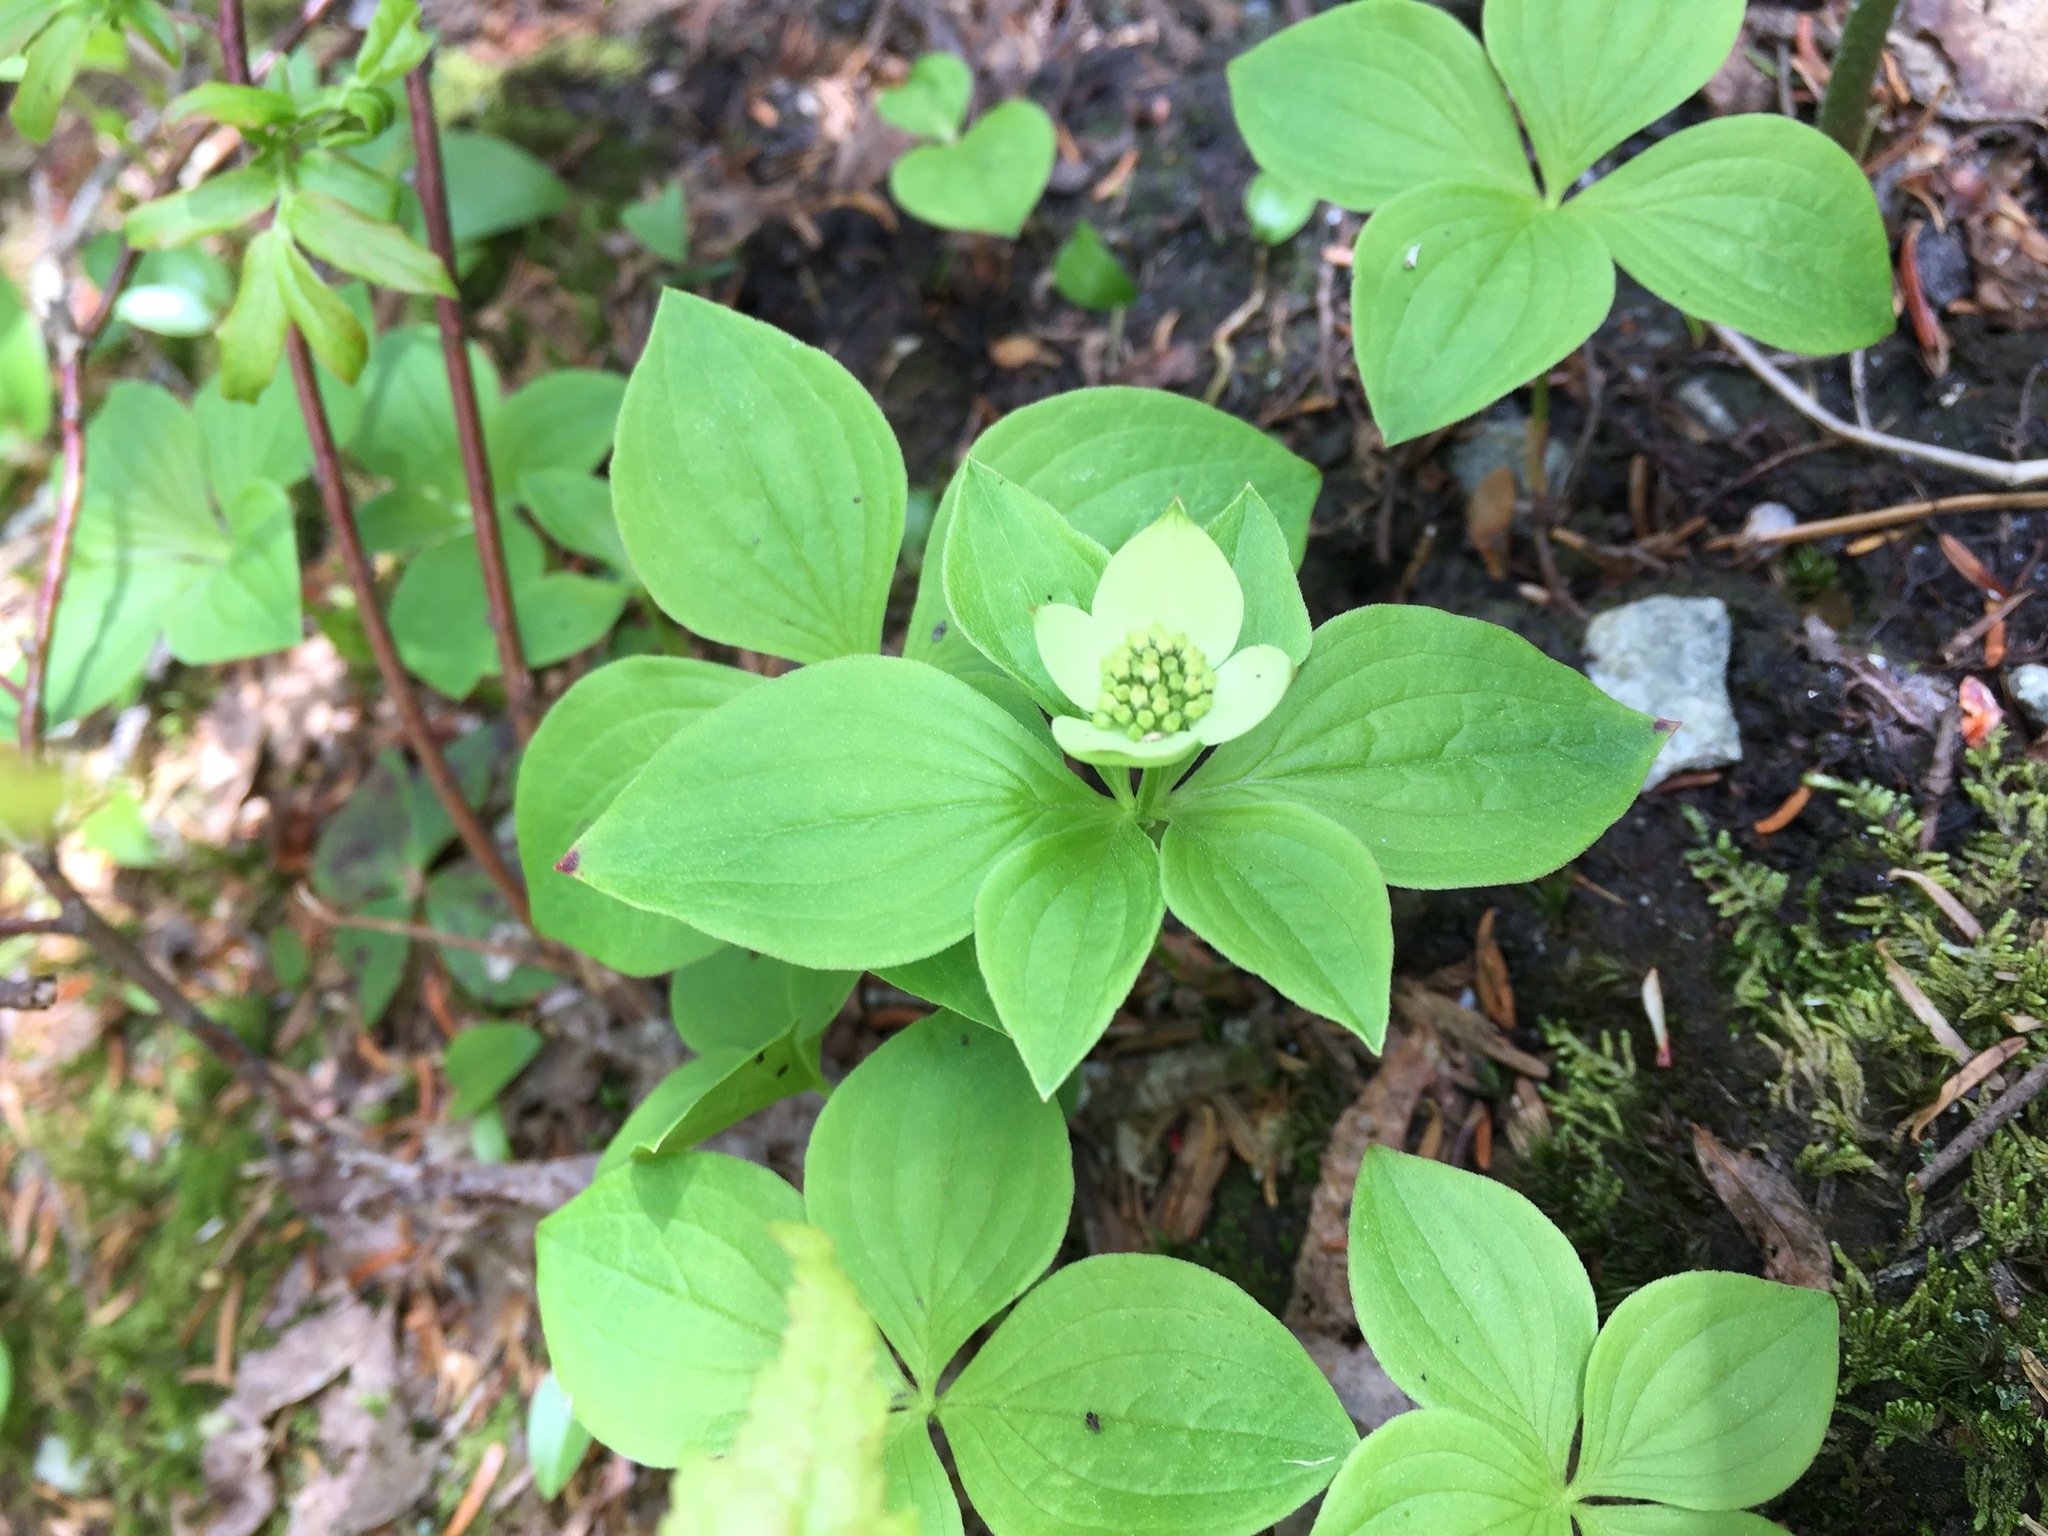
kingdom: Plantae
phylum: Tracheophyta
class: Magnoliopsida
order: Cornales
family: Cornaceae
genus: Cornus
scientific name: Cornus canadensis
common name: Creeping dogwood
